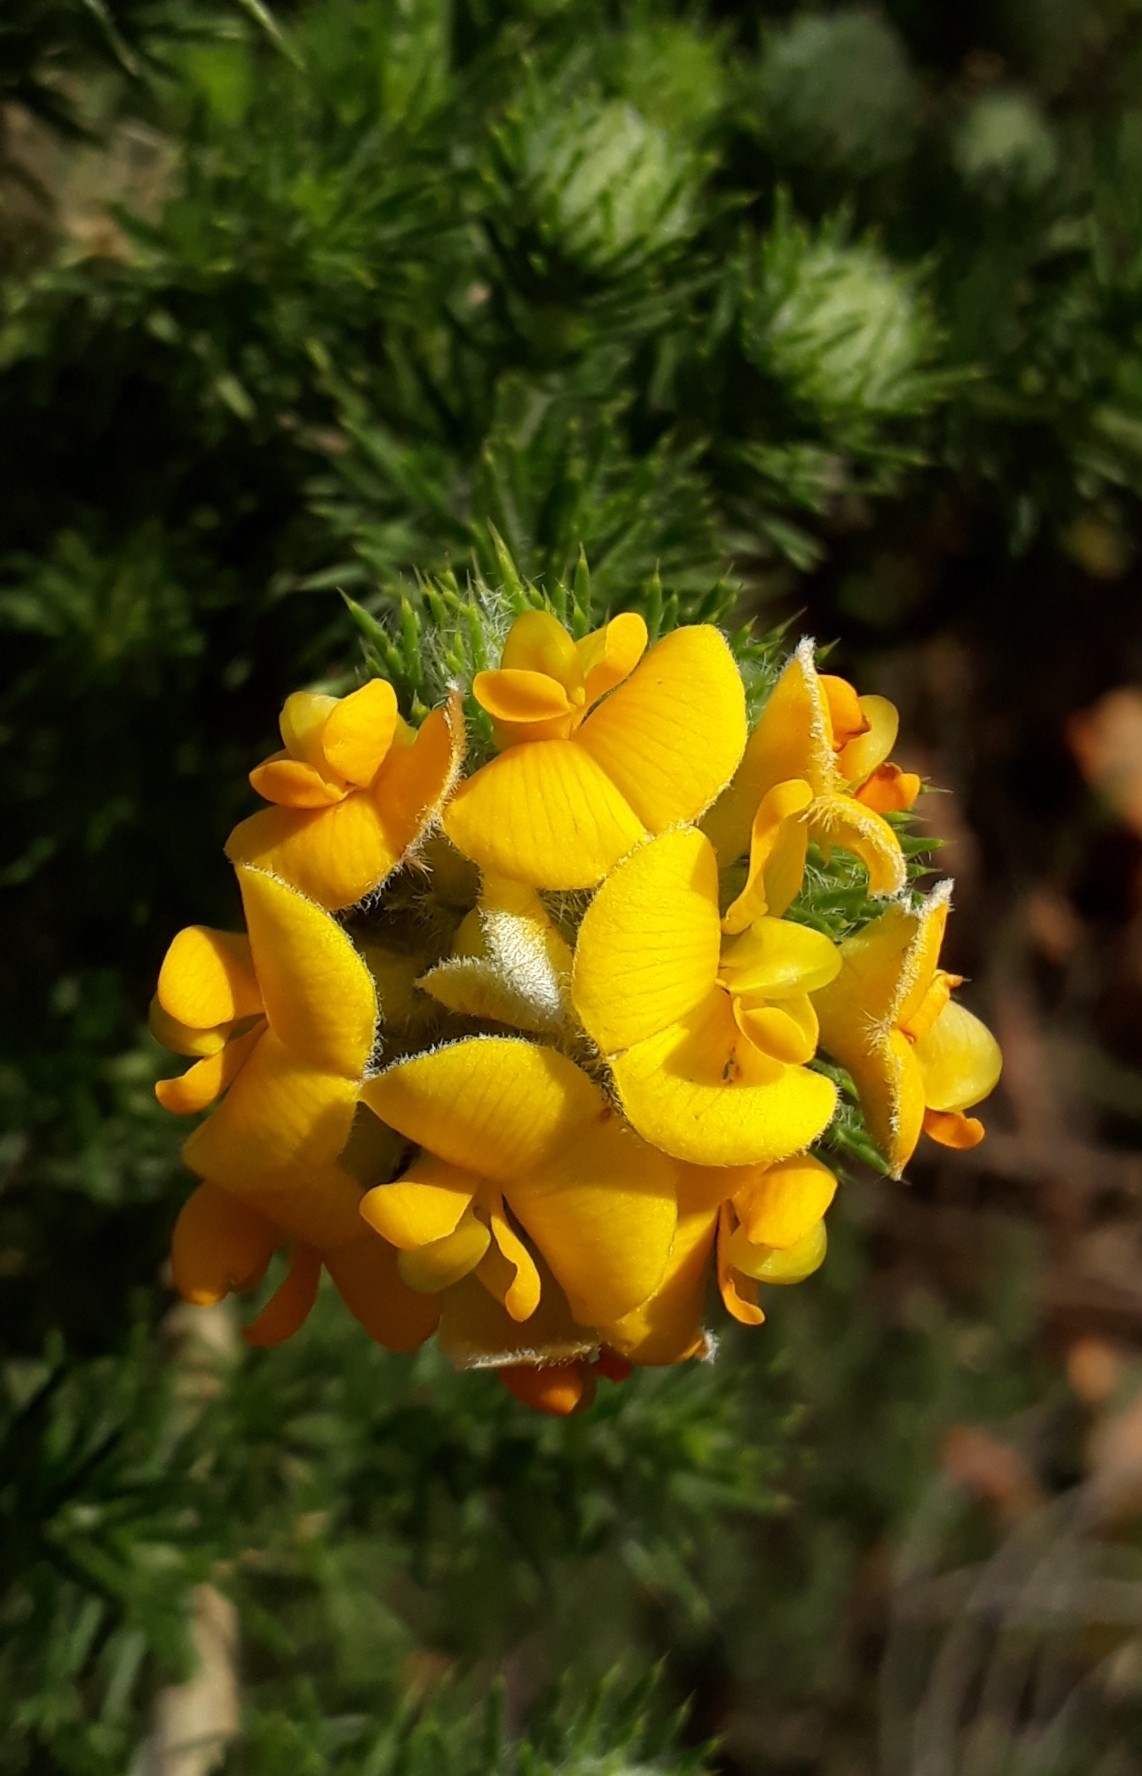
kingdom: Plantae
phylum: Tracheophyta
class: Magnoliopsida
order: Fabales
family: Fabaceae
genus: Aspalathus
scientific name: Aspalathus chenopoda
